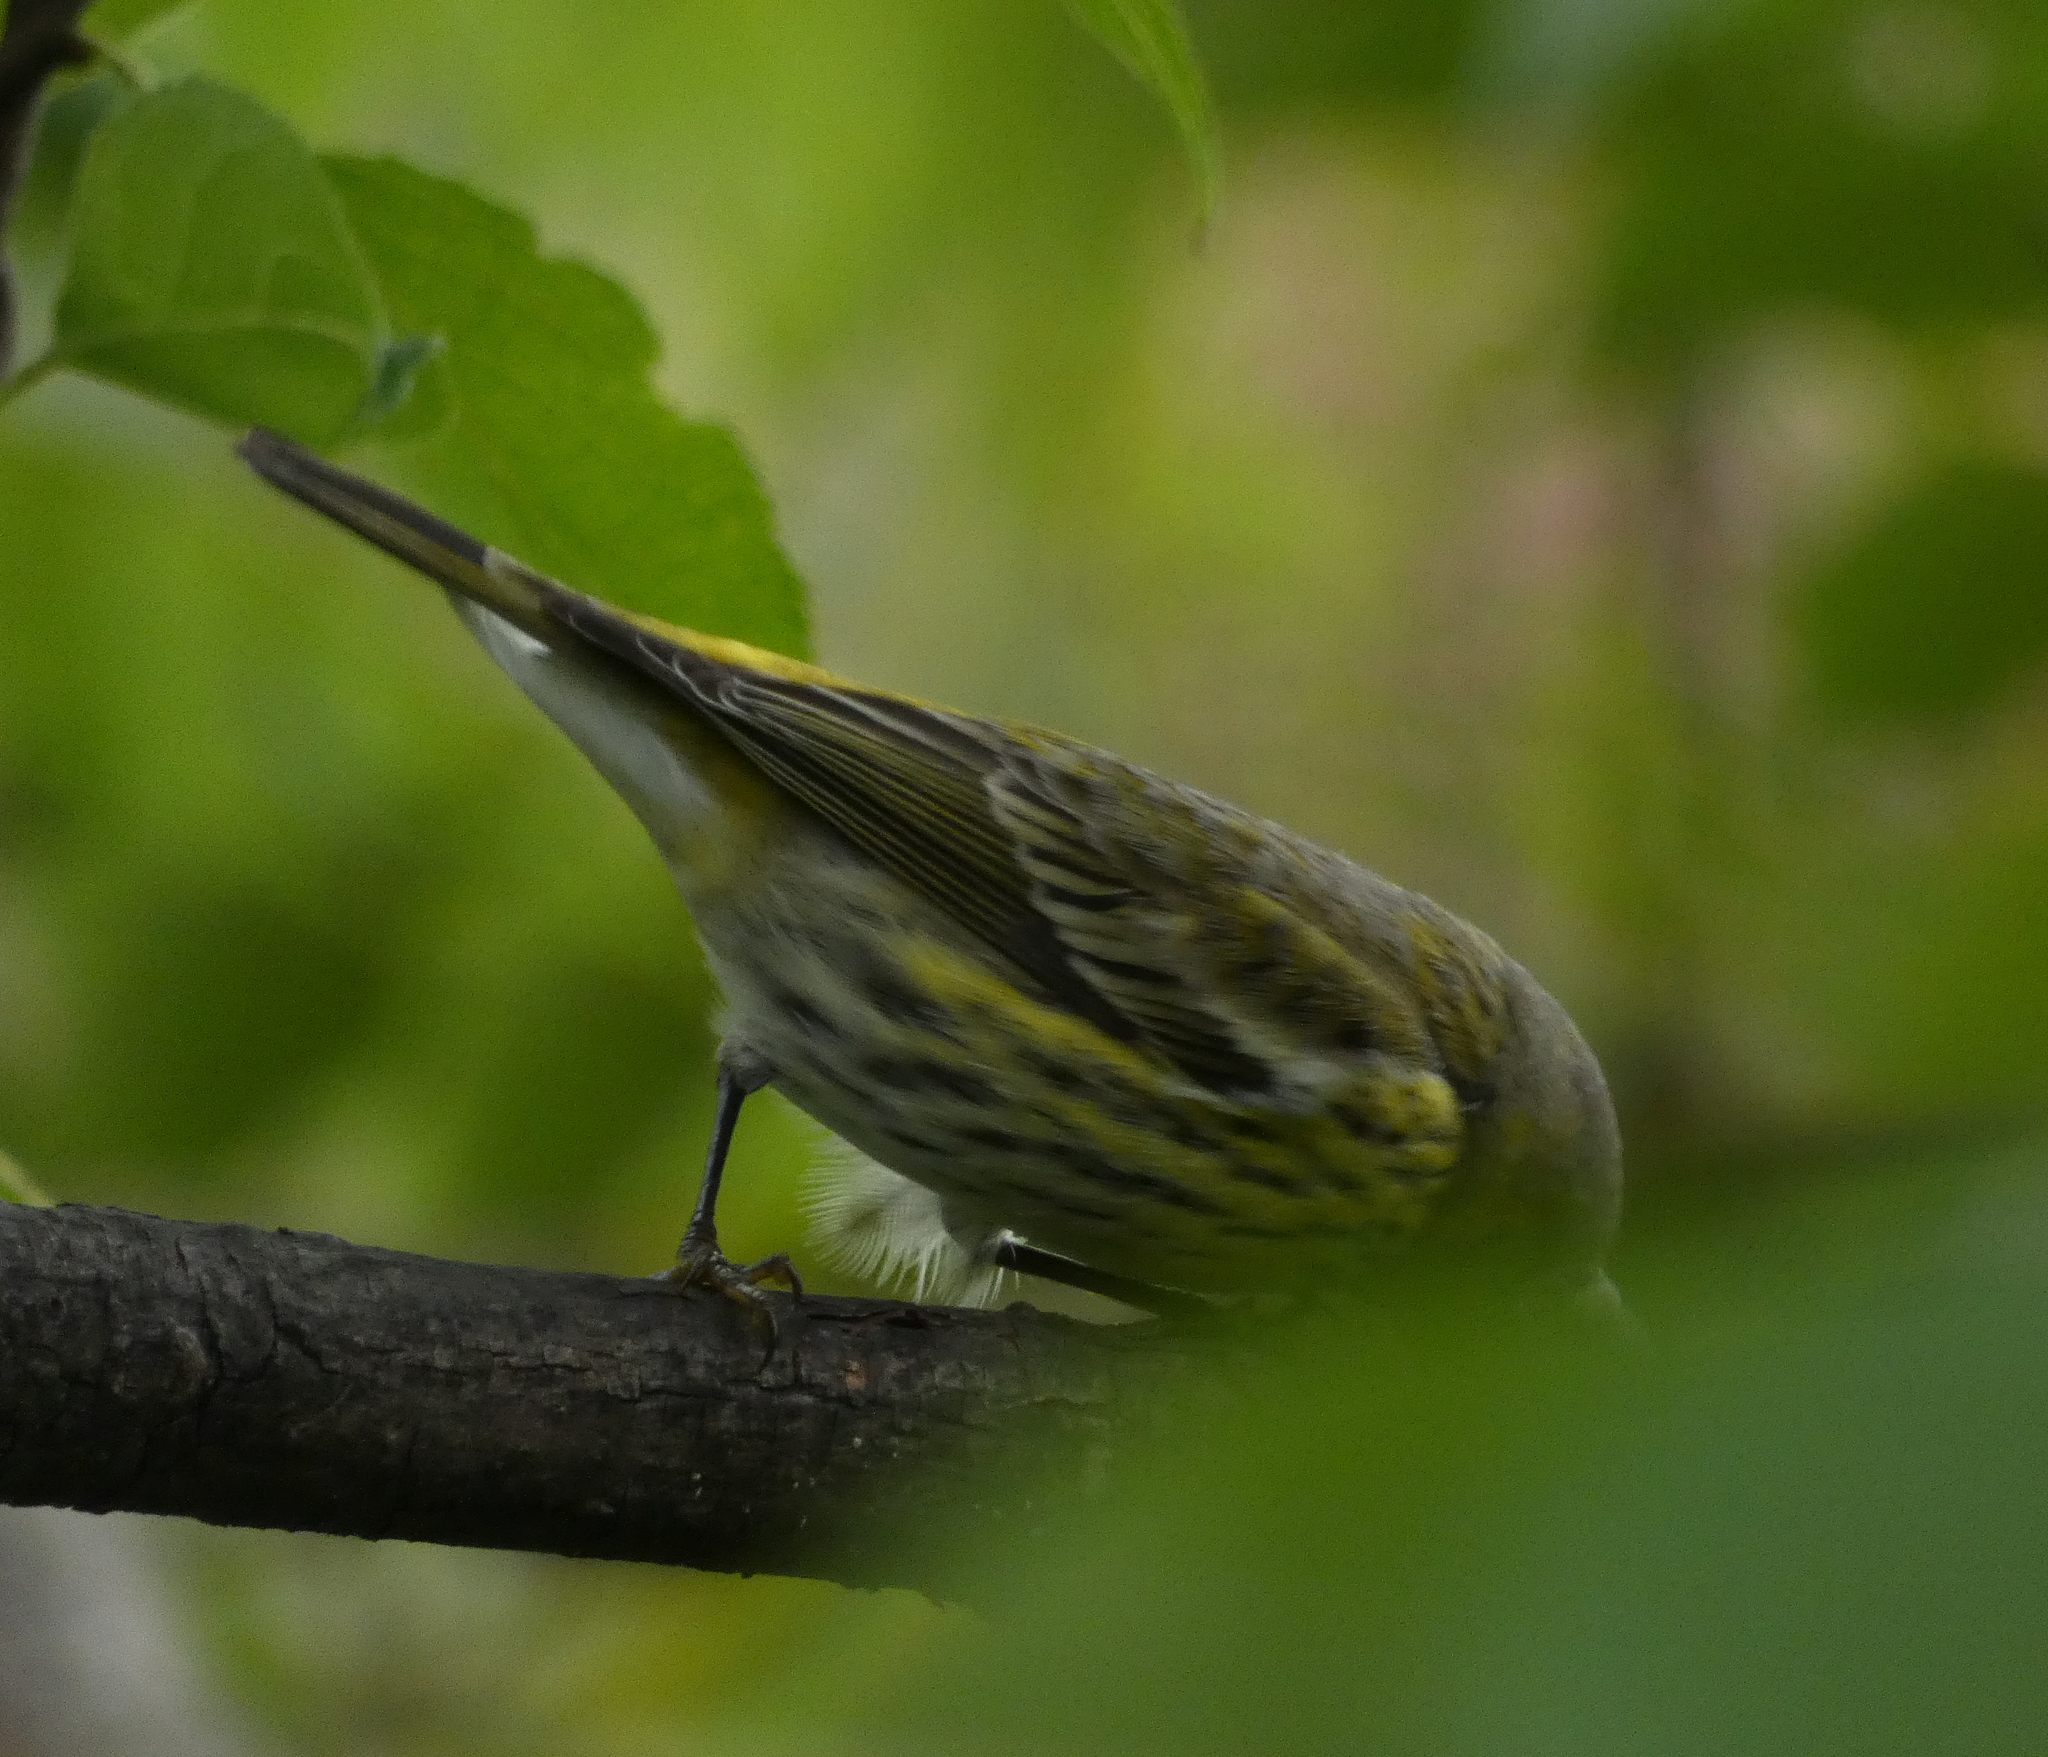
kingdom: Animalia
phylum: Chordata
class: Aves
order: Passeriformes
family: Parulidae
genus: Setophaga
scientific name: Setophaga tigrina
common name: Cape may warbler
